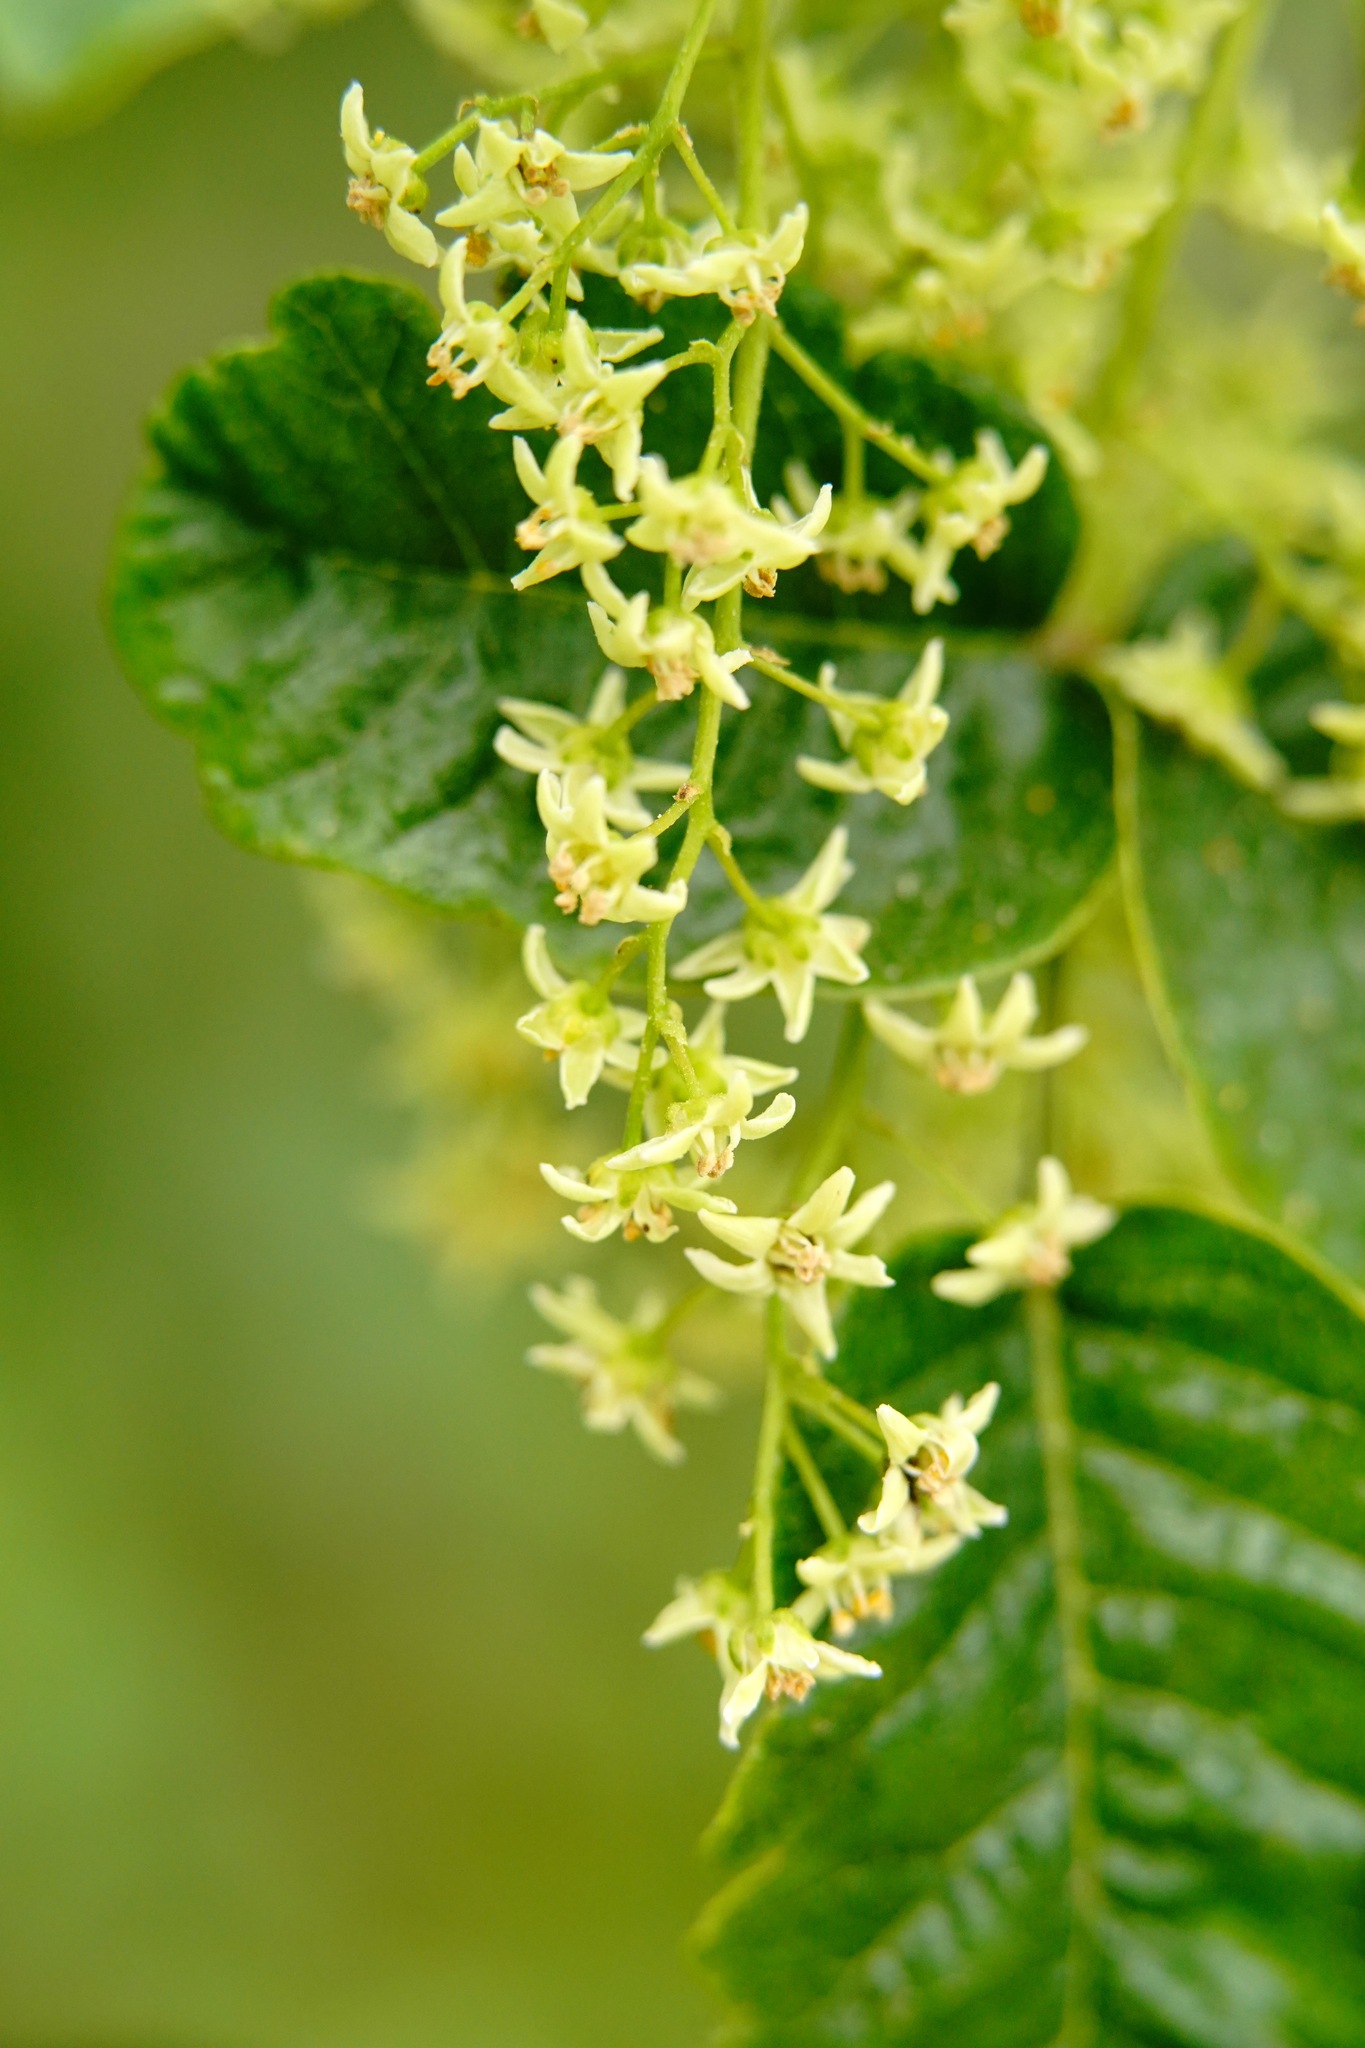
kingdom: Plantae
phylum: Tracheophyta
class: Magnoliopsida
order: Sapindales
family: Anacardiaceae
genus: Toxicodendron
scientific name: Toxicodendron diversilobum
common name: Pacific poison-oak
